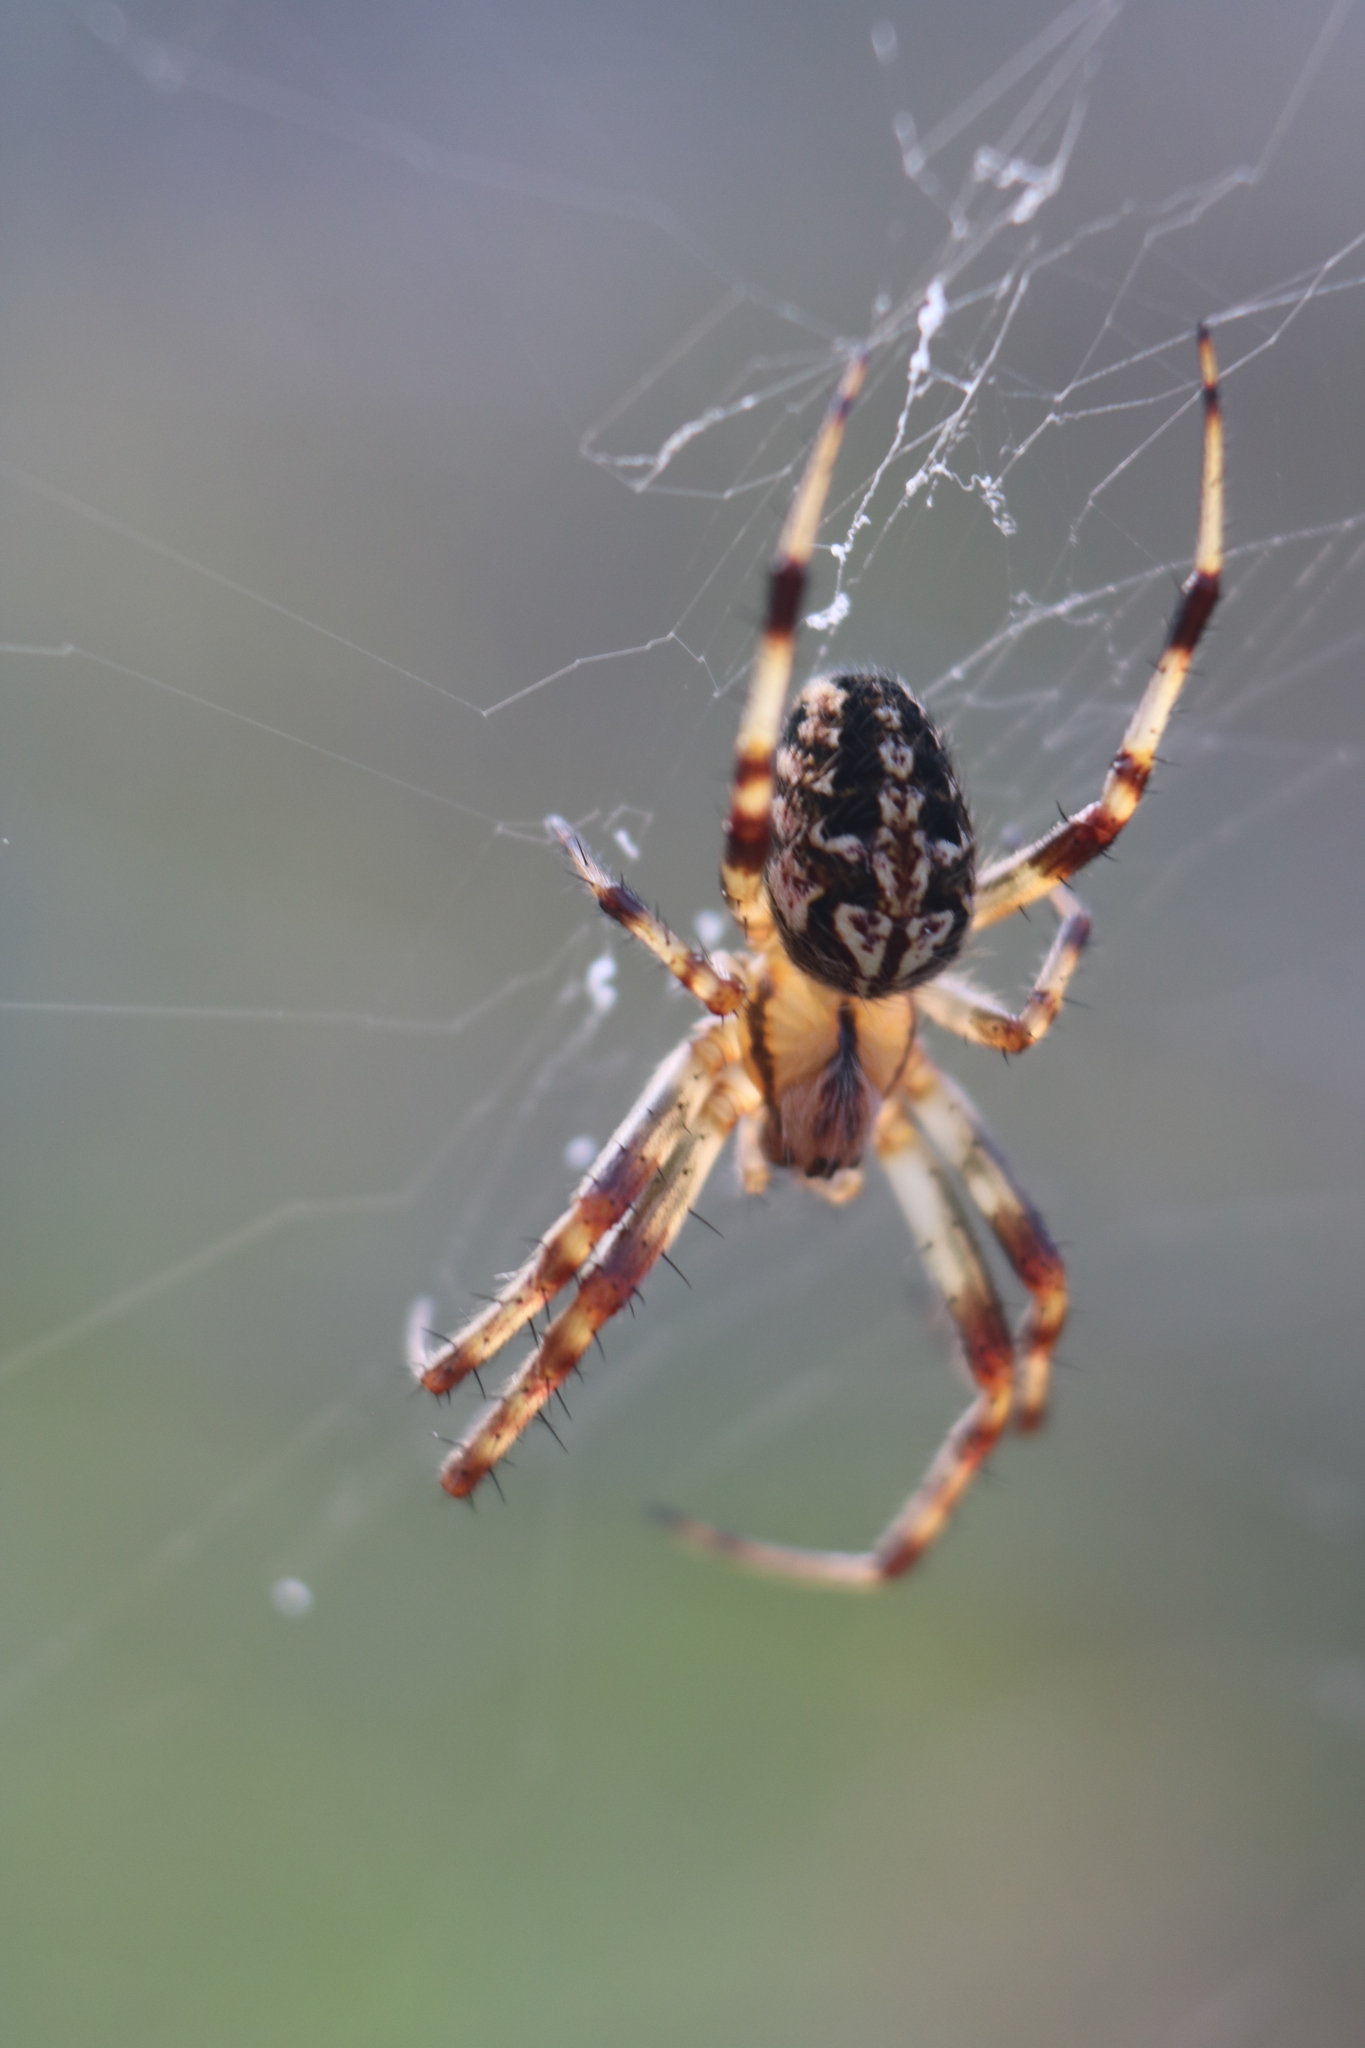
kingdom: Animalia
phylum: Arthropoda
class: Arachnida
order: Araneae
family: Araneidae
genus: Neoscona
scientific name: Neoscona arabesca
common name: Orb weavers
